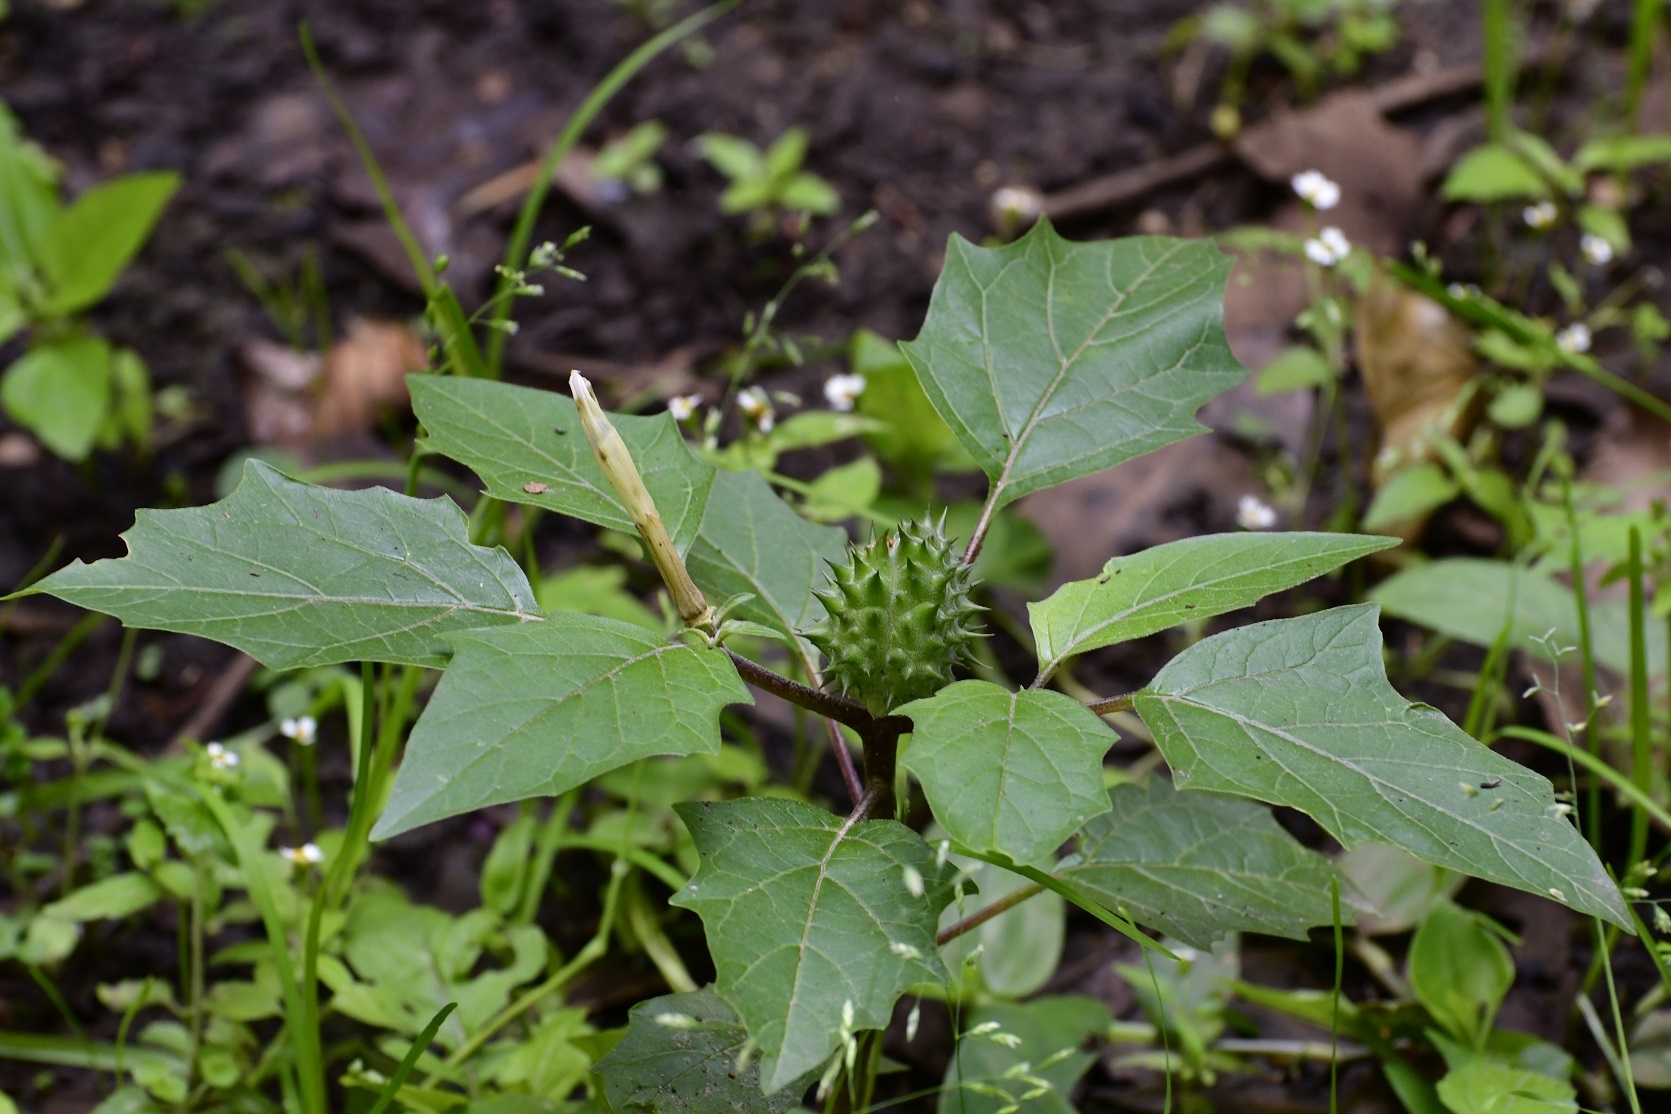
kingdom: Plantae
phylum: Tracheophyta
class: Magnoliopsida
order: Solanales
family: Solanaceae
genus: Datura
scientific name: Datura stramonium
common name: Thorn-apple
